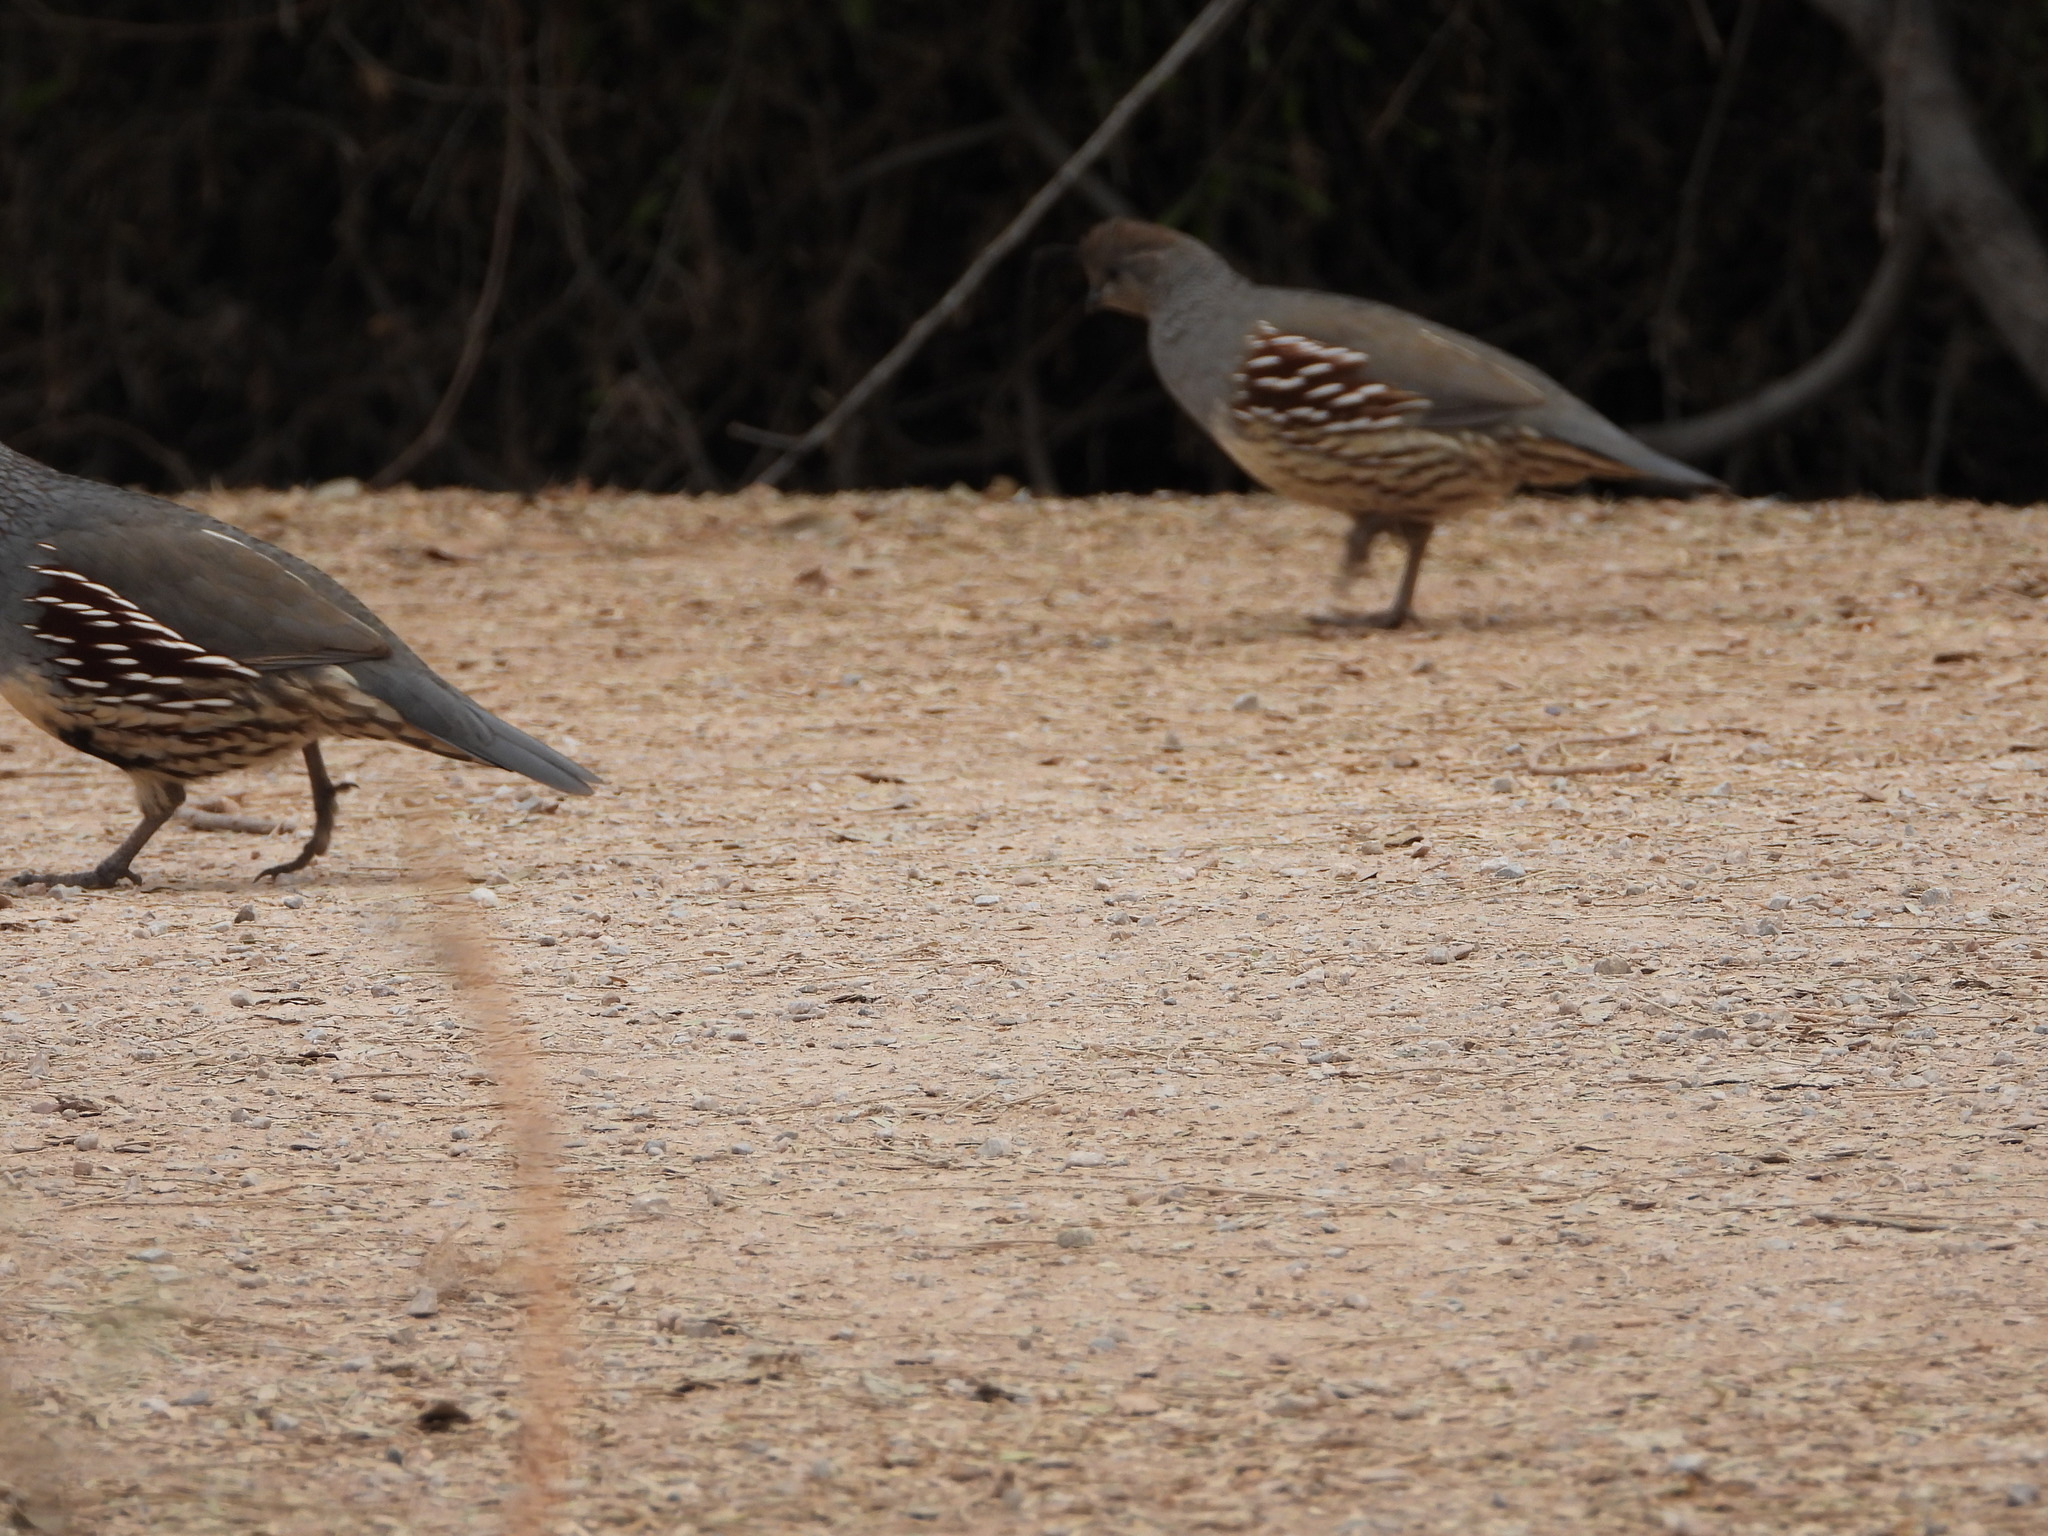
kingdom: Animalia
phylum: Chordata
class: Aves
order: Galliformes
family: Odontophoridae
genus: Callipepla
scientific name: Callipepla gambelii
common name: Gambel's quail
